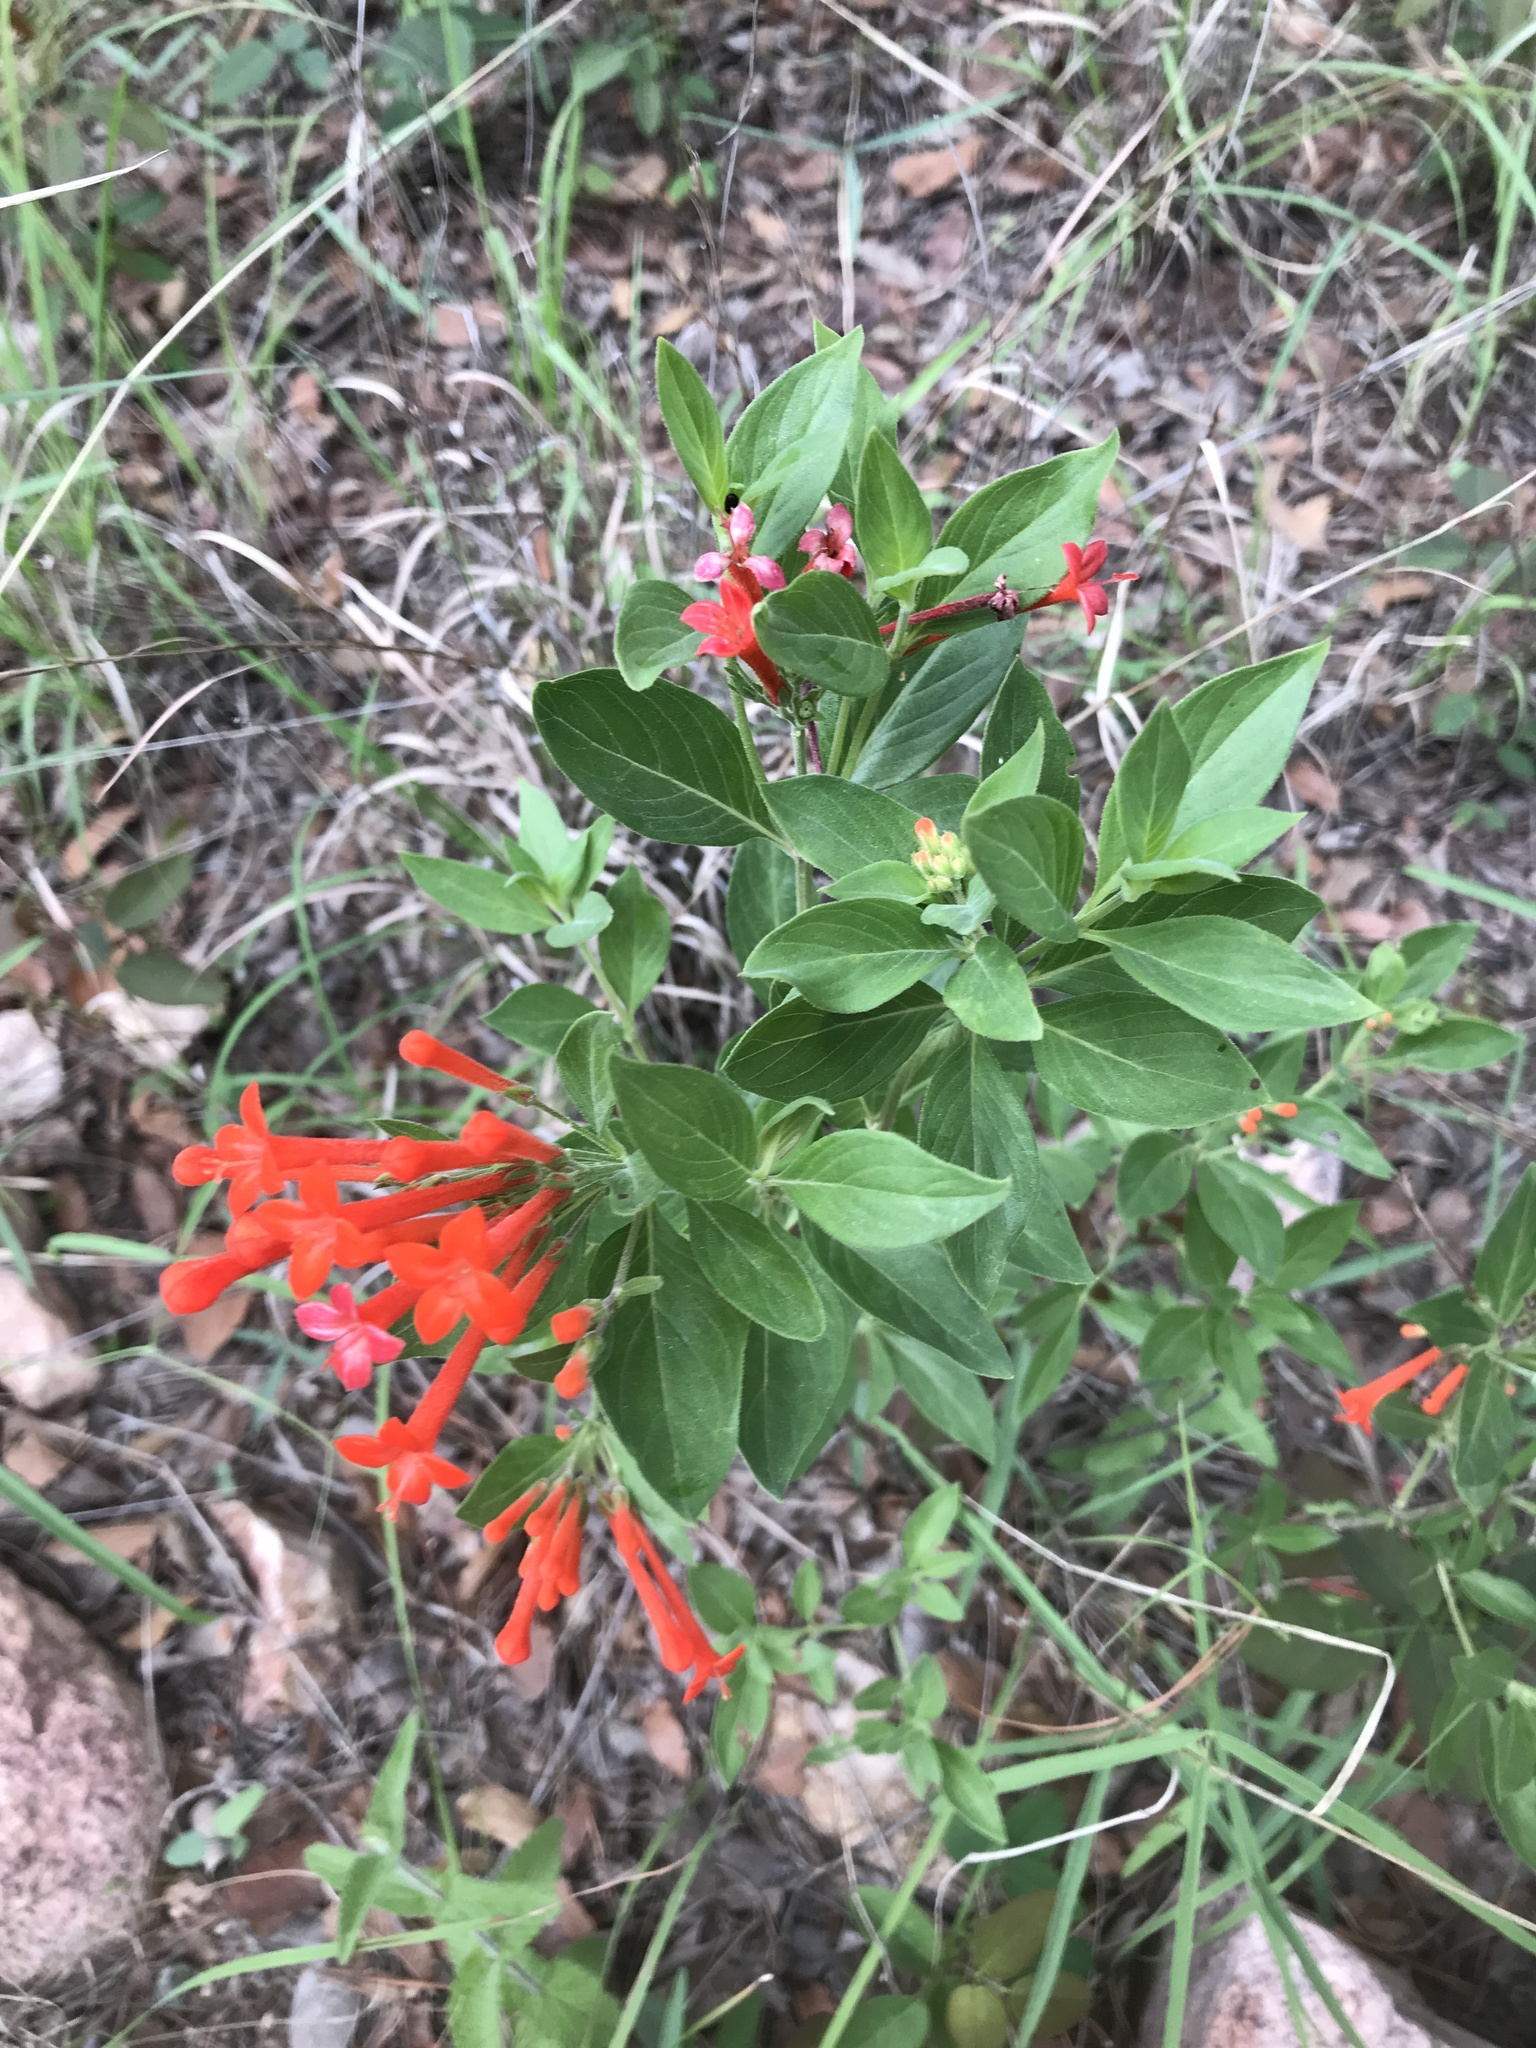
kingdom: Plantae
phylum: Tracheophyta
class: Magnoliopsida
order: Gentianales
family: Rubiaceae
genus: Bouvardia
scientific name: Bouvardia ternifolia
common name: Scarlet bouvardia
